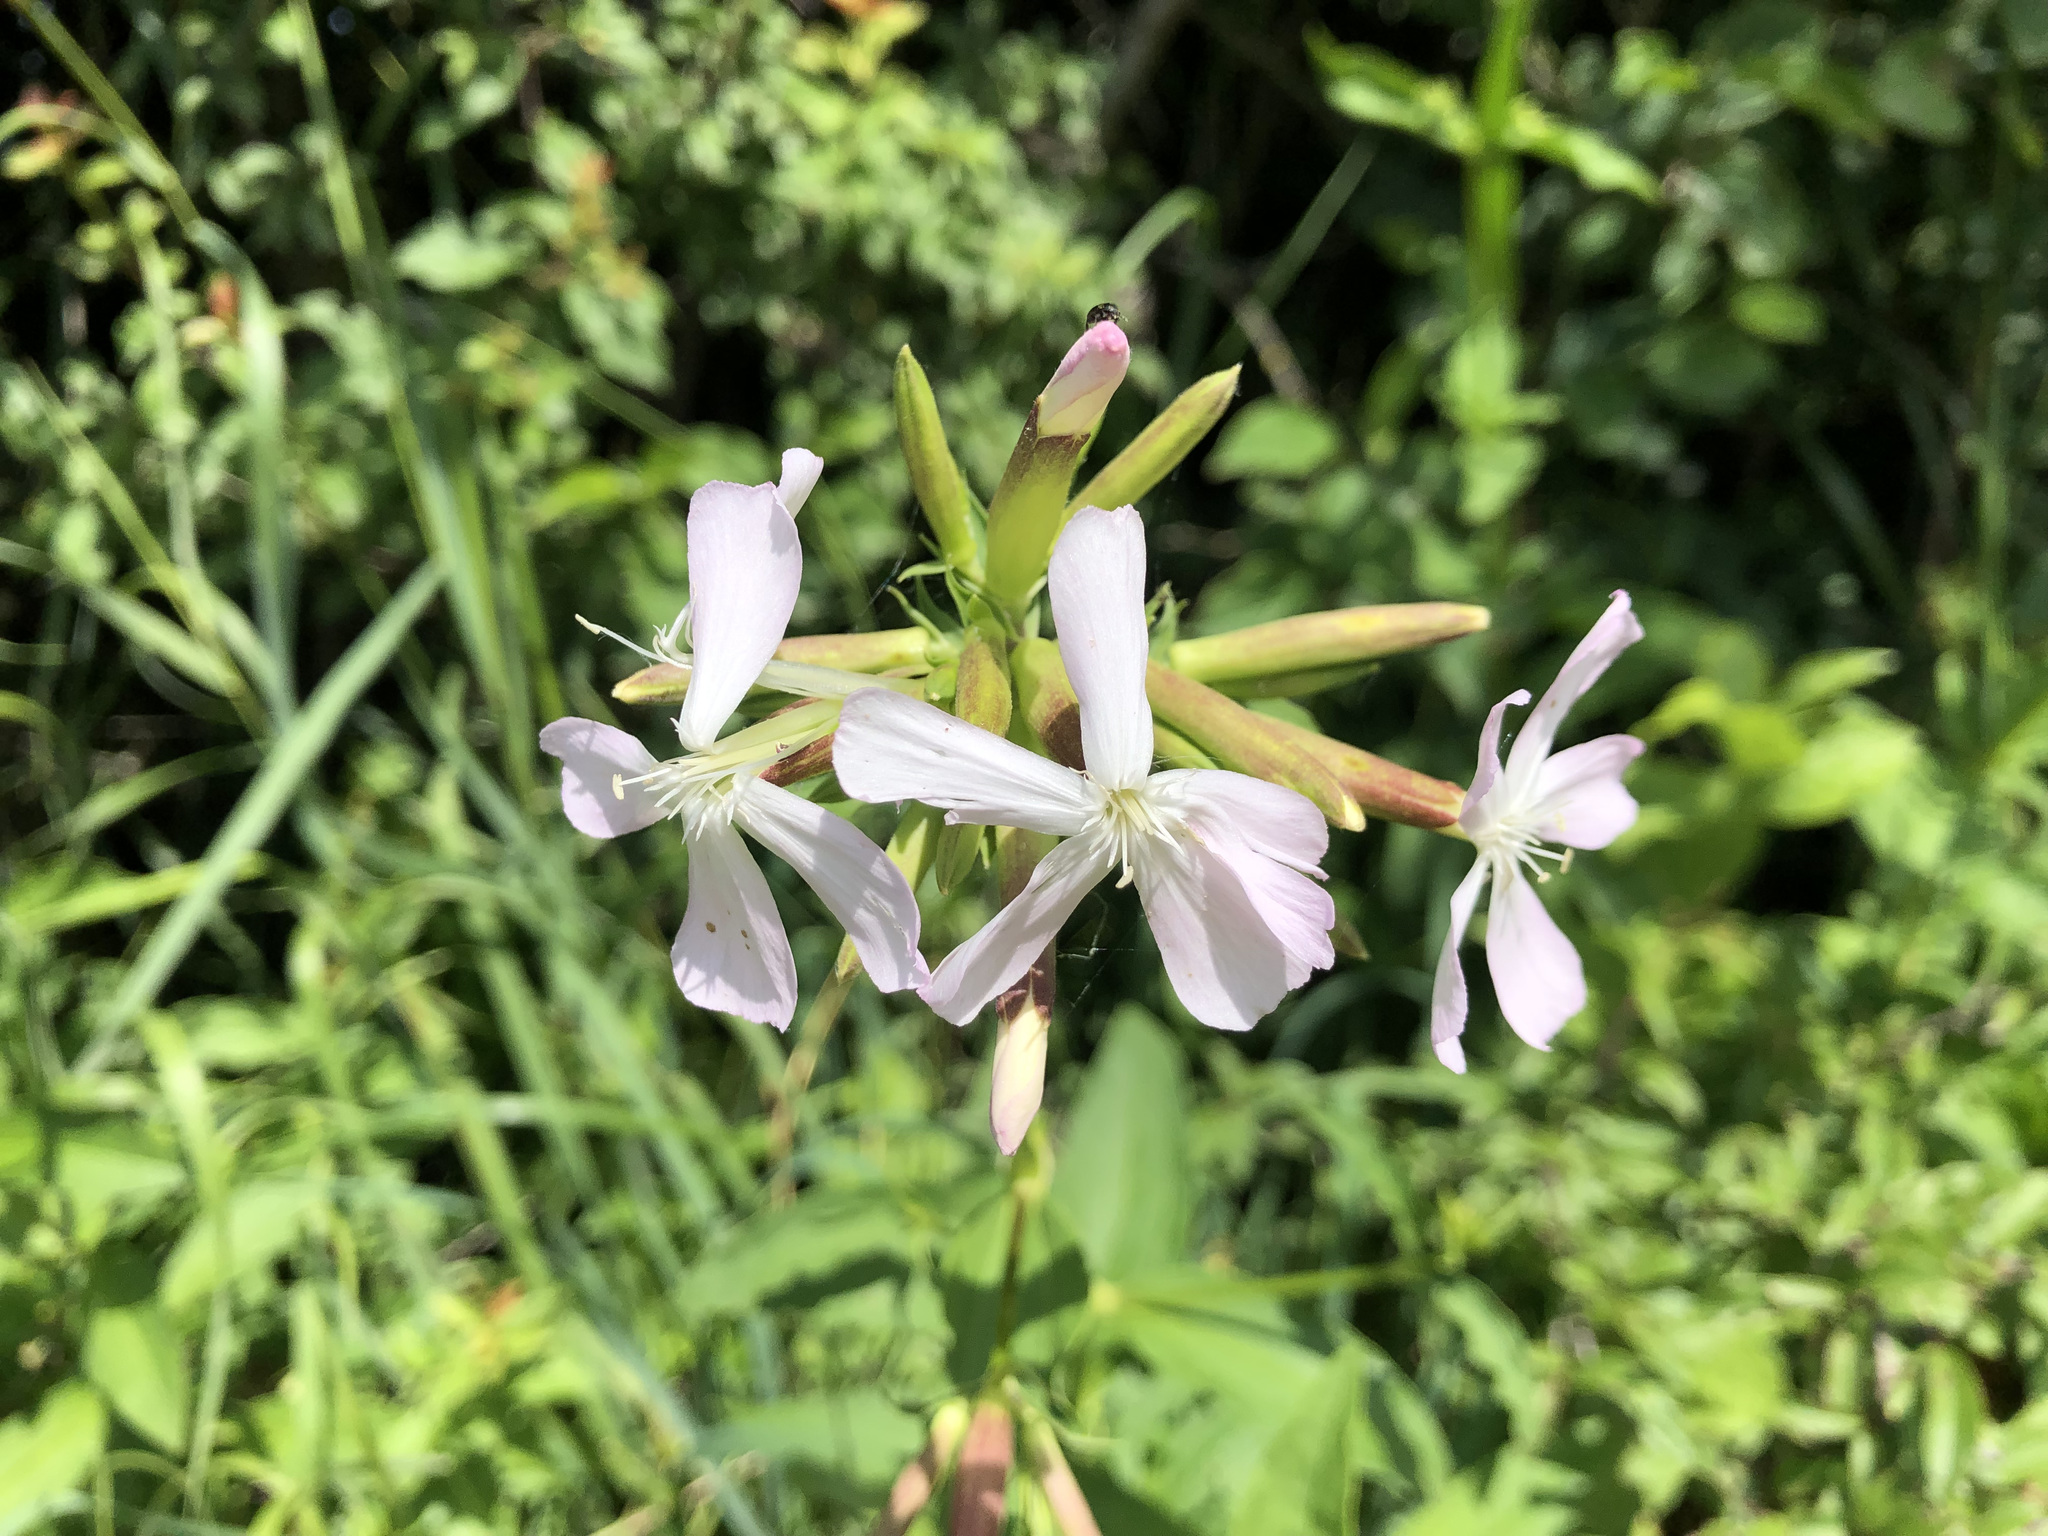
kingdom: Plantae
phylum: Tracheophyta
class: Magnoliopsida
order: Caryophyllales
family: Caryophyllaceae
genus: Saponaria
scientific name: Saponaria officinalis
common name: Soapwort
